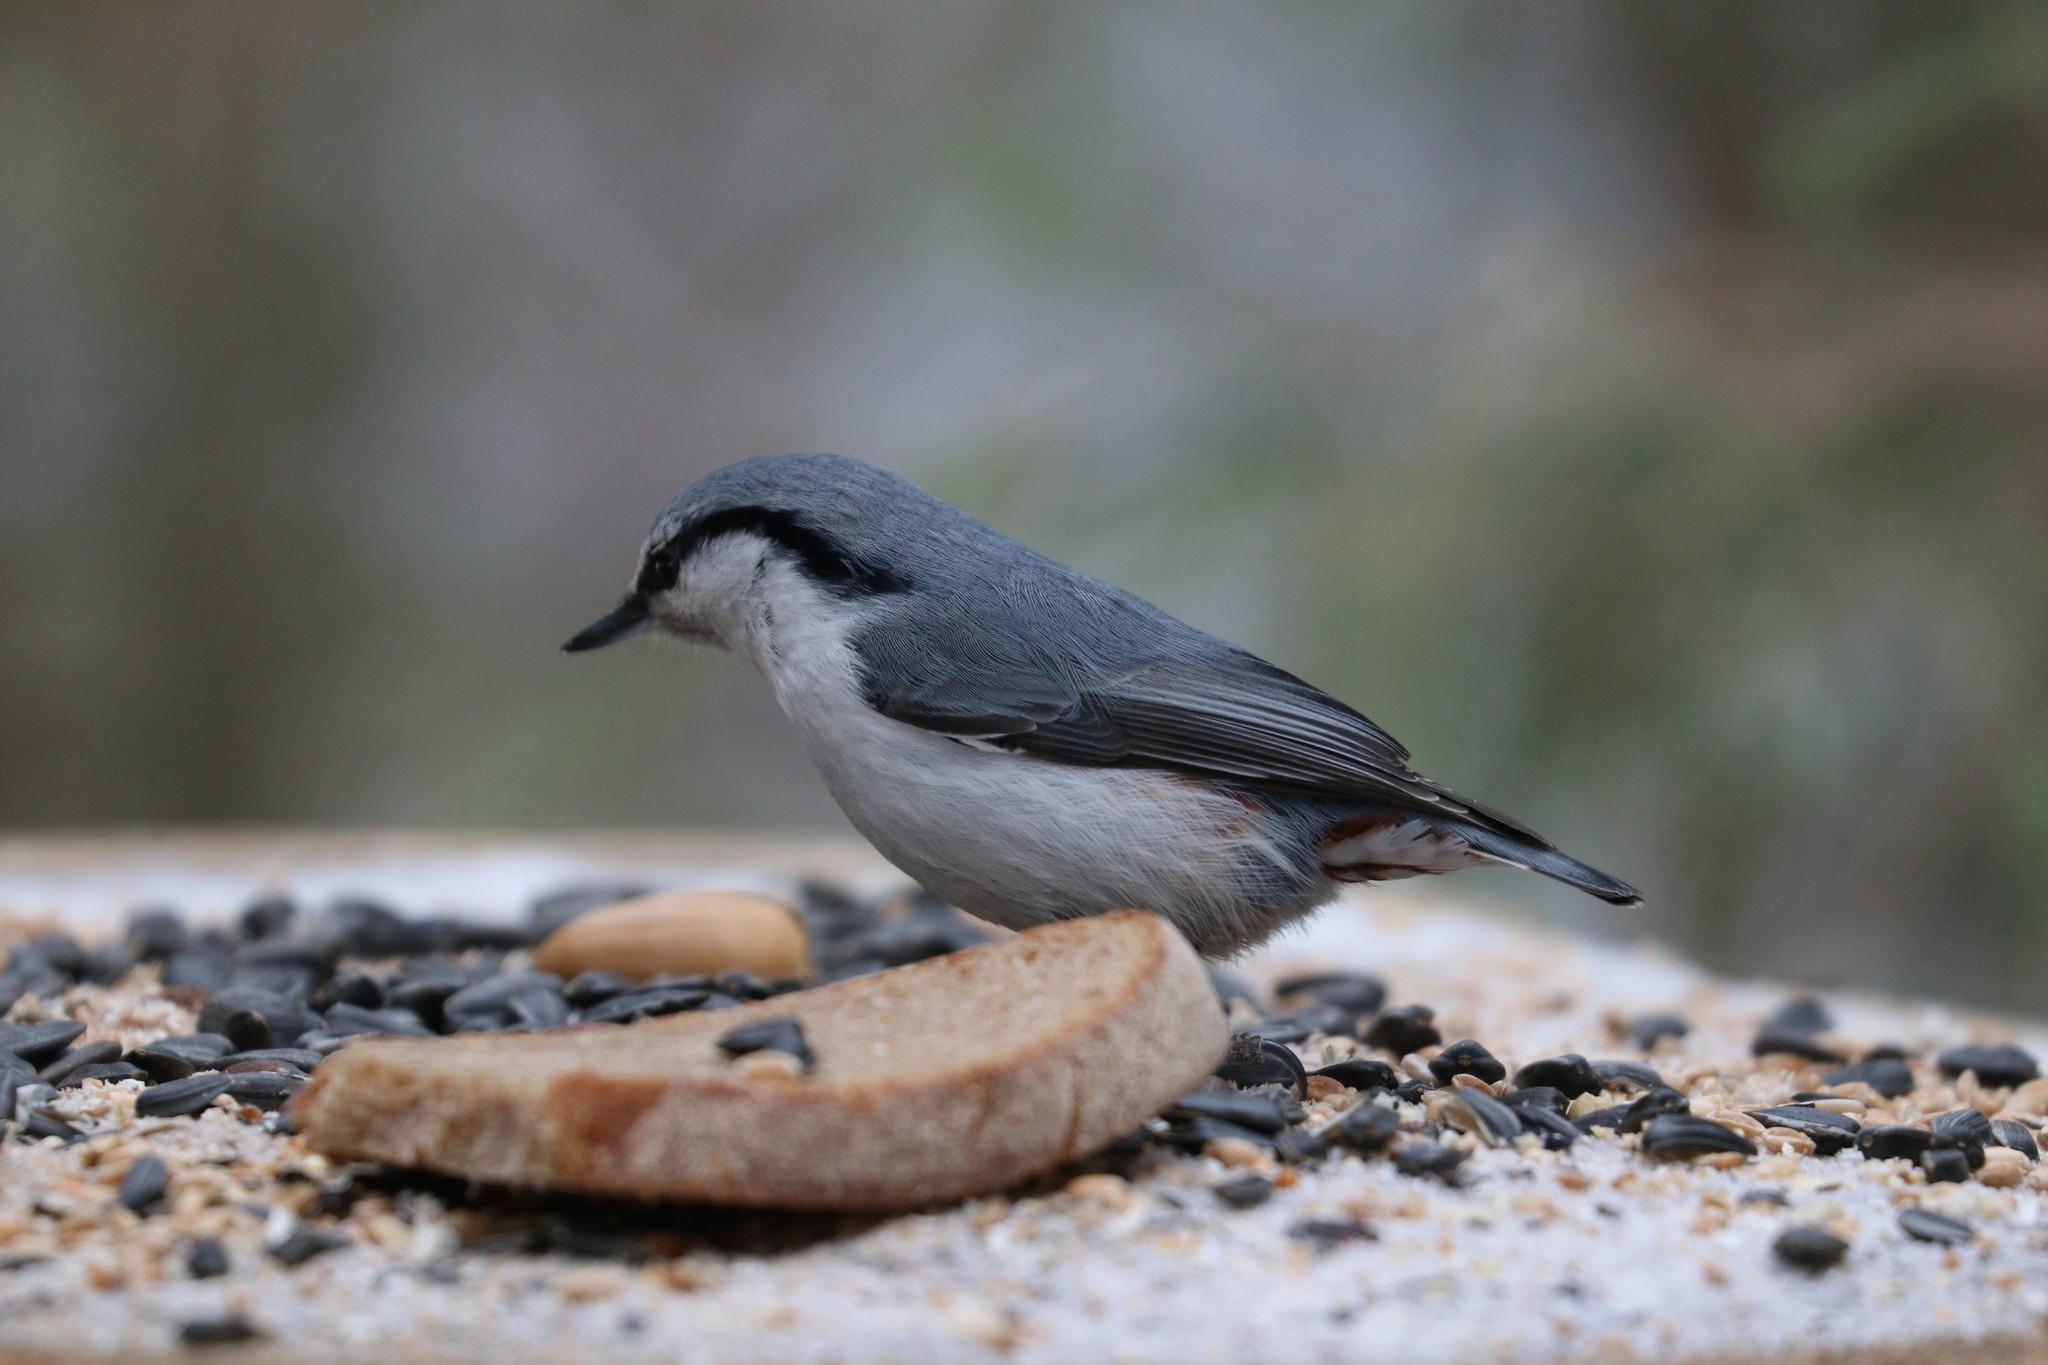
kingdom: Animalia
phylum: Chordata
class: Aves
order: Passeriformes
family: Sittidae
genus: Sitta
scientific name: Sitta europaea
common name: Eurasian nuthatch
